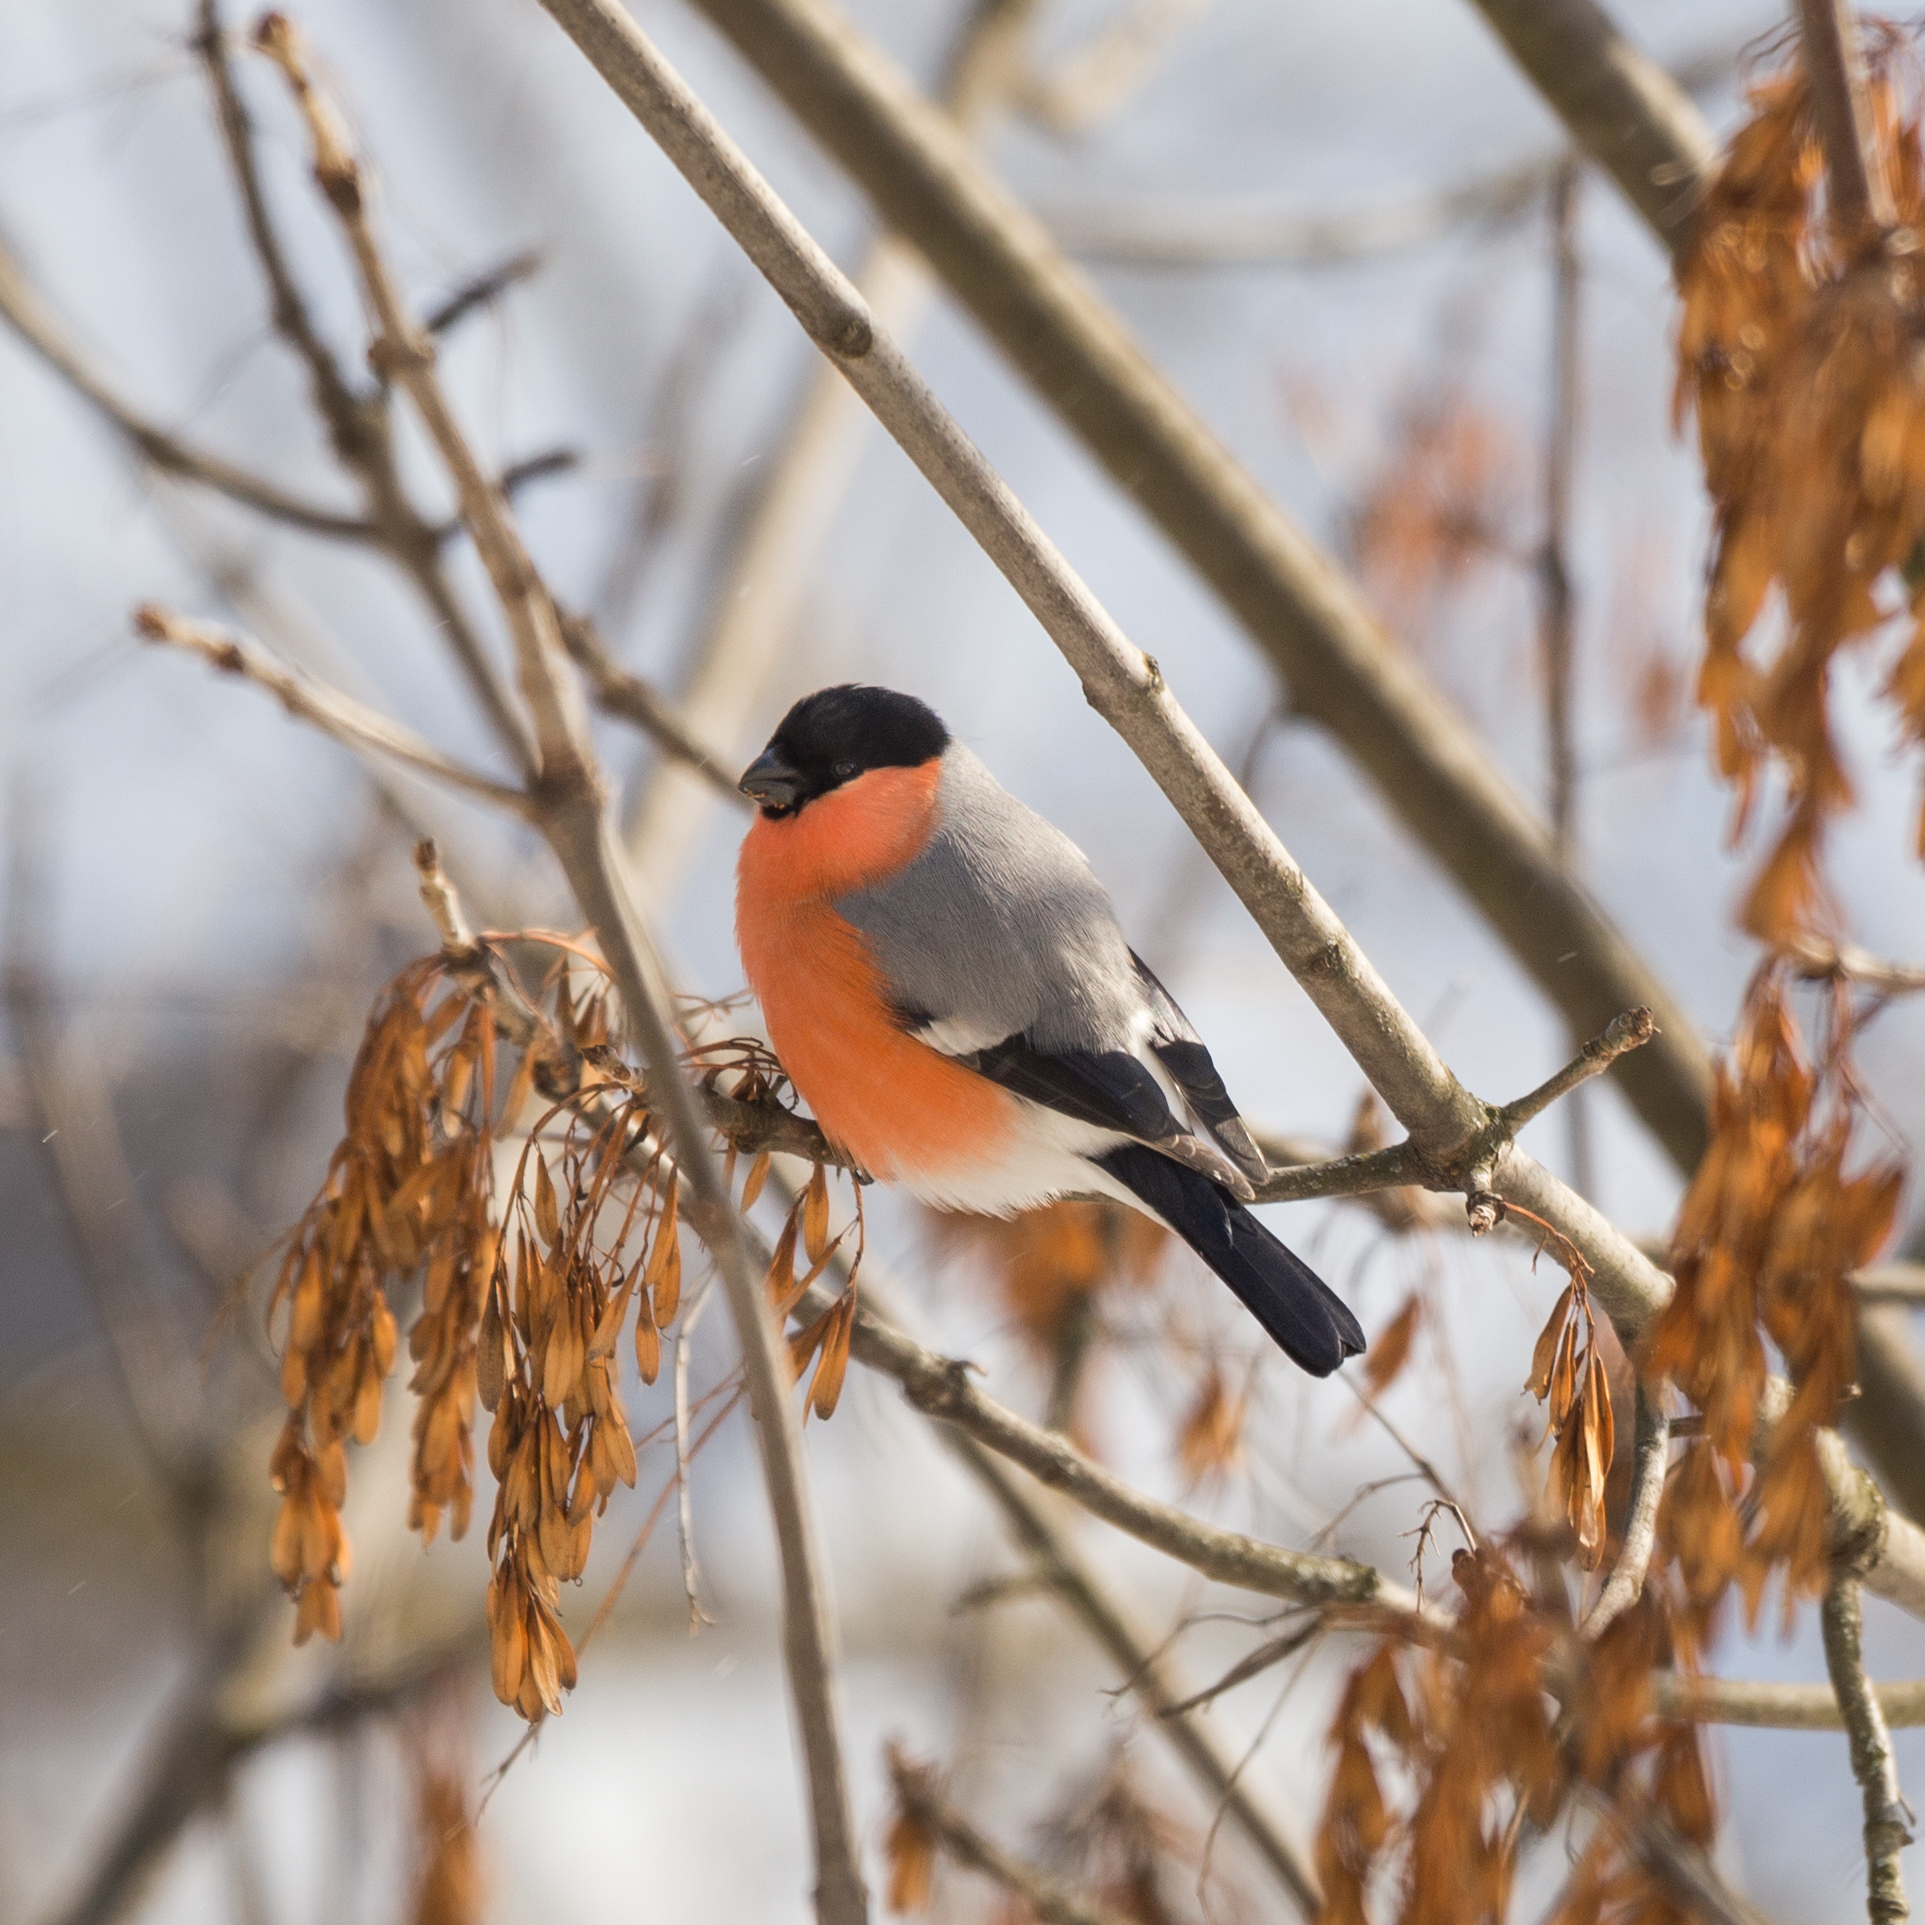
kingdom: Animalia
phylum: Chordata
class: Aves
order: Passeriformes
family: Fringillidae
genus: Pyrrhula
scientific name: Pyrrhula pyrrhula
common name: Eurasian bullfinch
